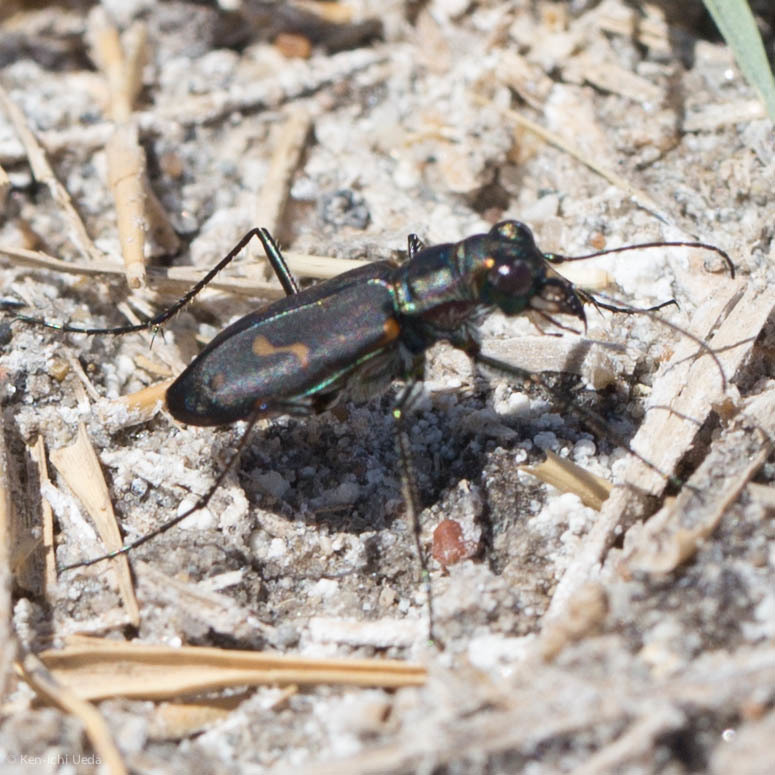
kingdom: Animalia
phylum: Arthropoda
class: Insecta
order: Coleoptera
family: Carabidae
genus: Cicindela
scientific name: Cicindela hemorrhagica
